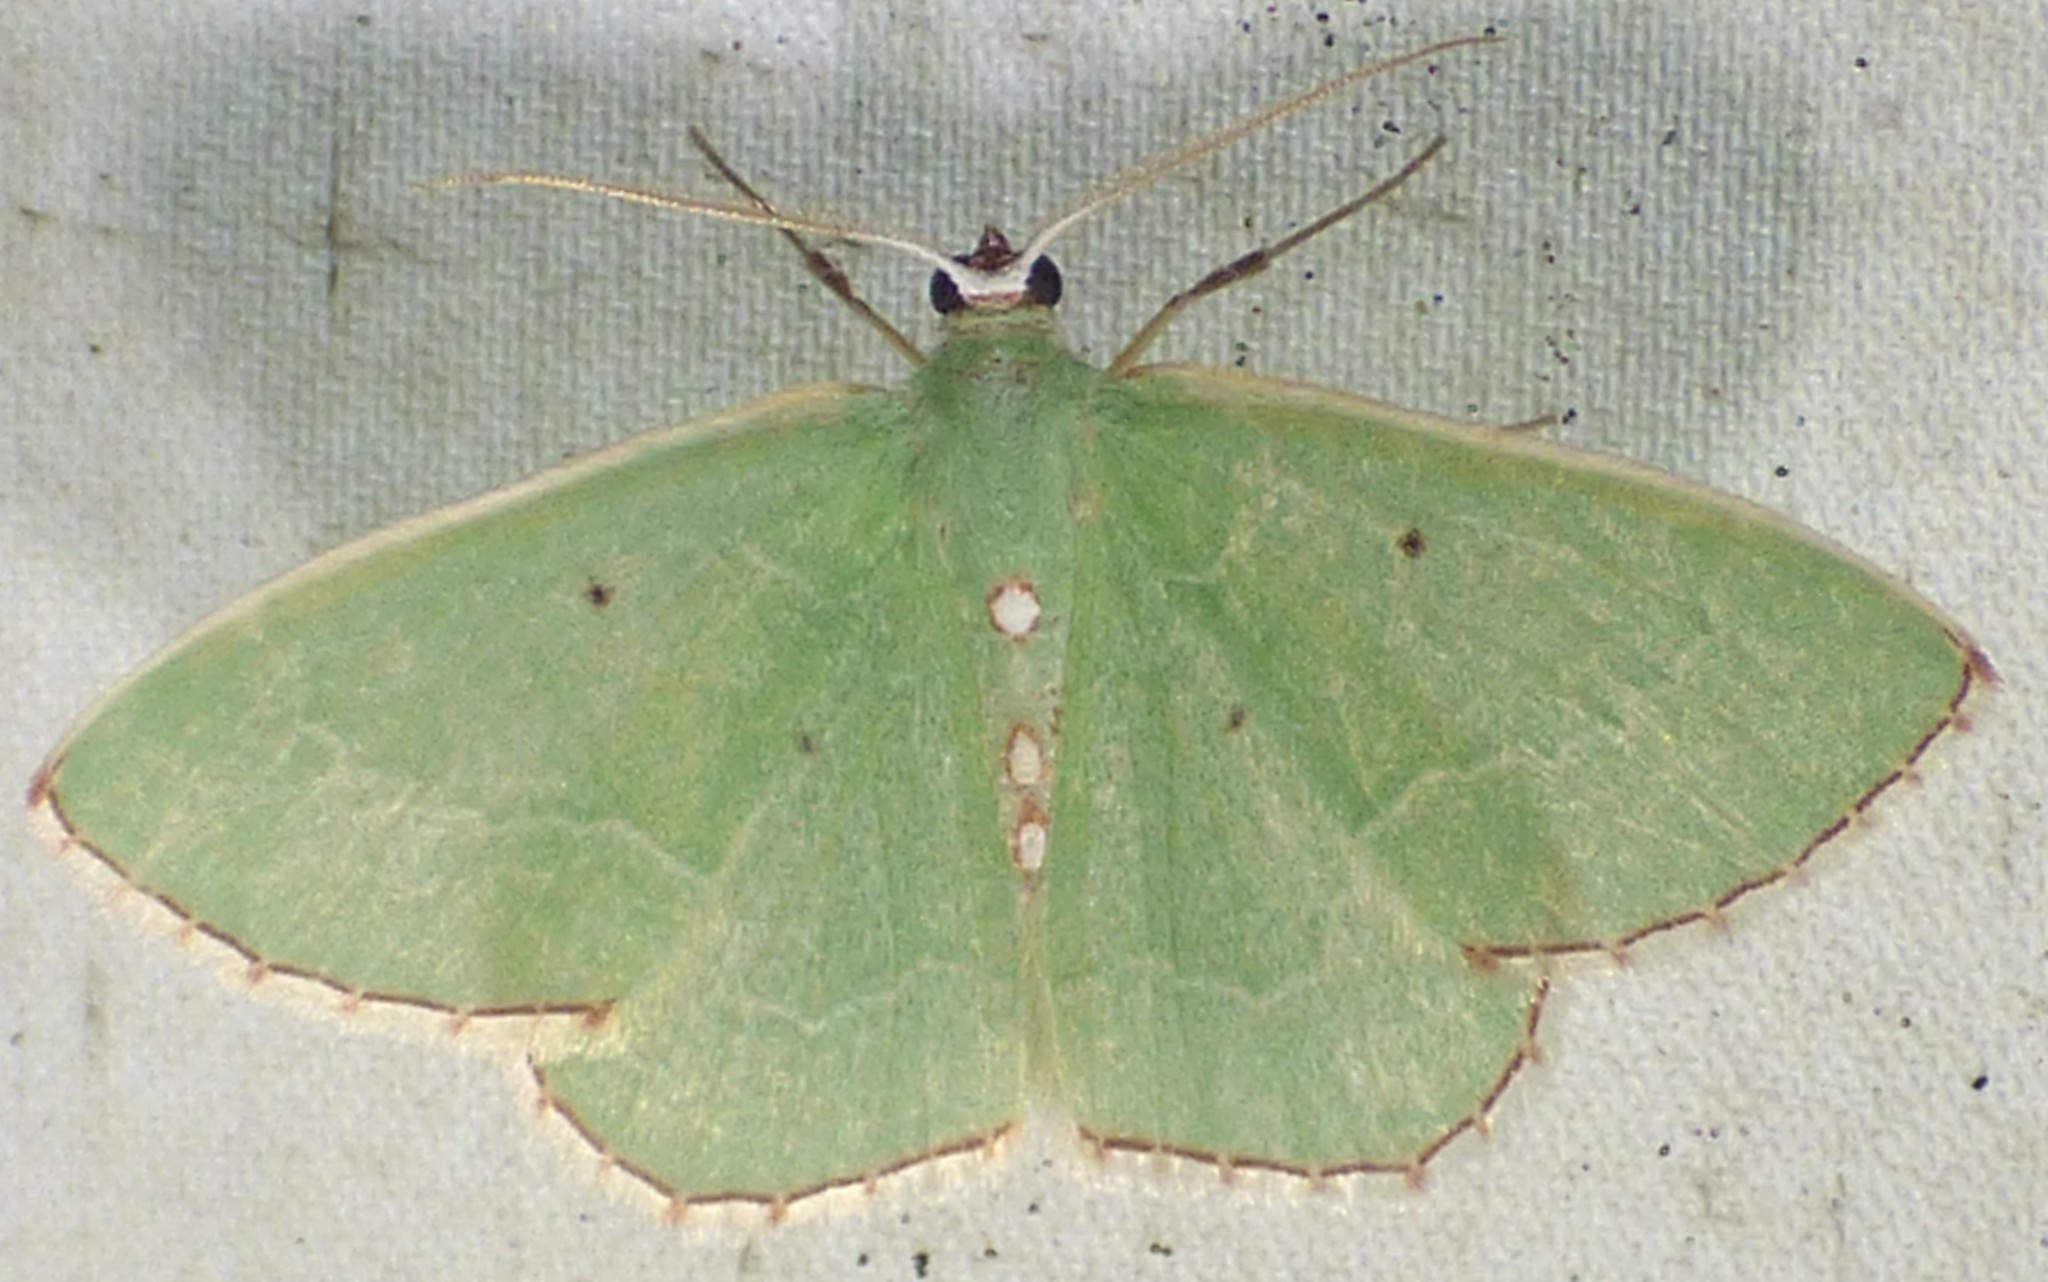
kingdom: Animalia
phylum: Arthropoda
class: Insecta
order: Lepidoptera
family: Geometridae
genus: Nemoria
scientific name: Nemoria lixaria
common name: Red-bordered emerald
